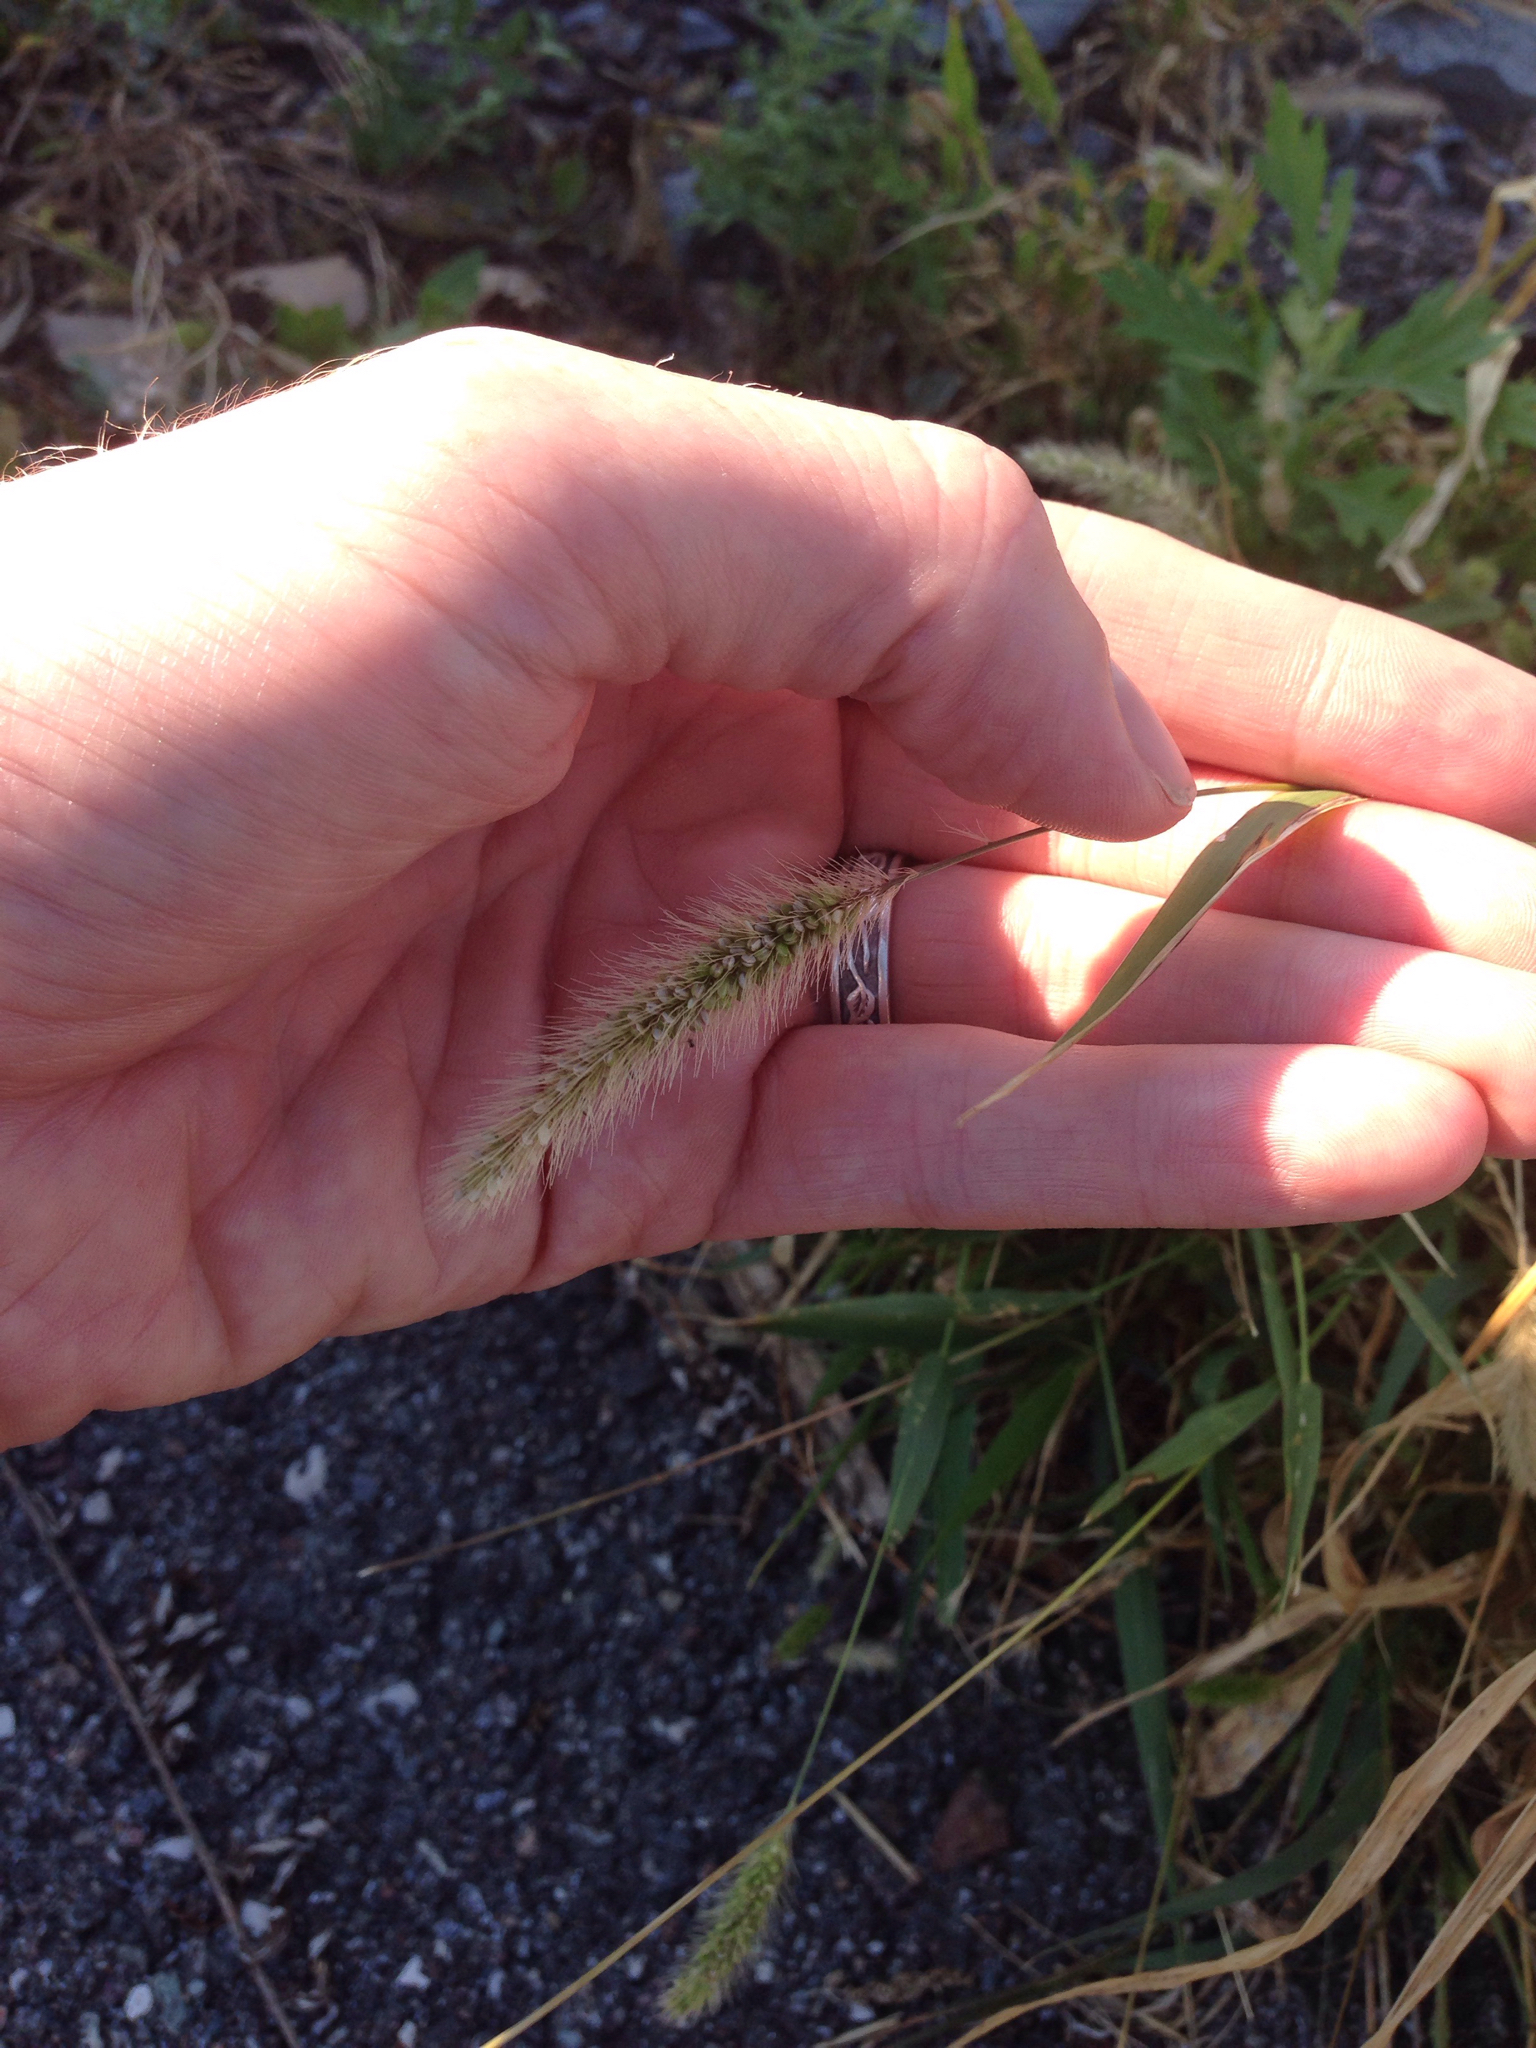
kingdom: Plantae
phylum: Tracheophyta
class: Liliopsida
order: Poales
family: Poaceae
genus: Setaria
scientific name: Setaria viridis
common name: Green bristlegrass
